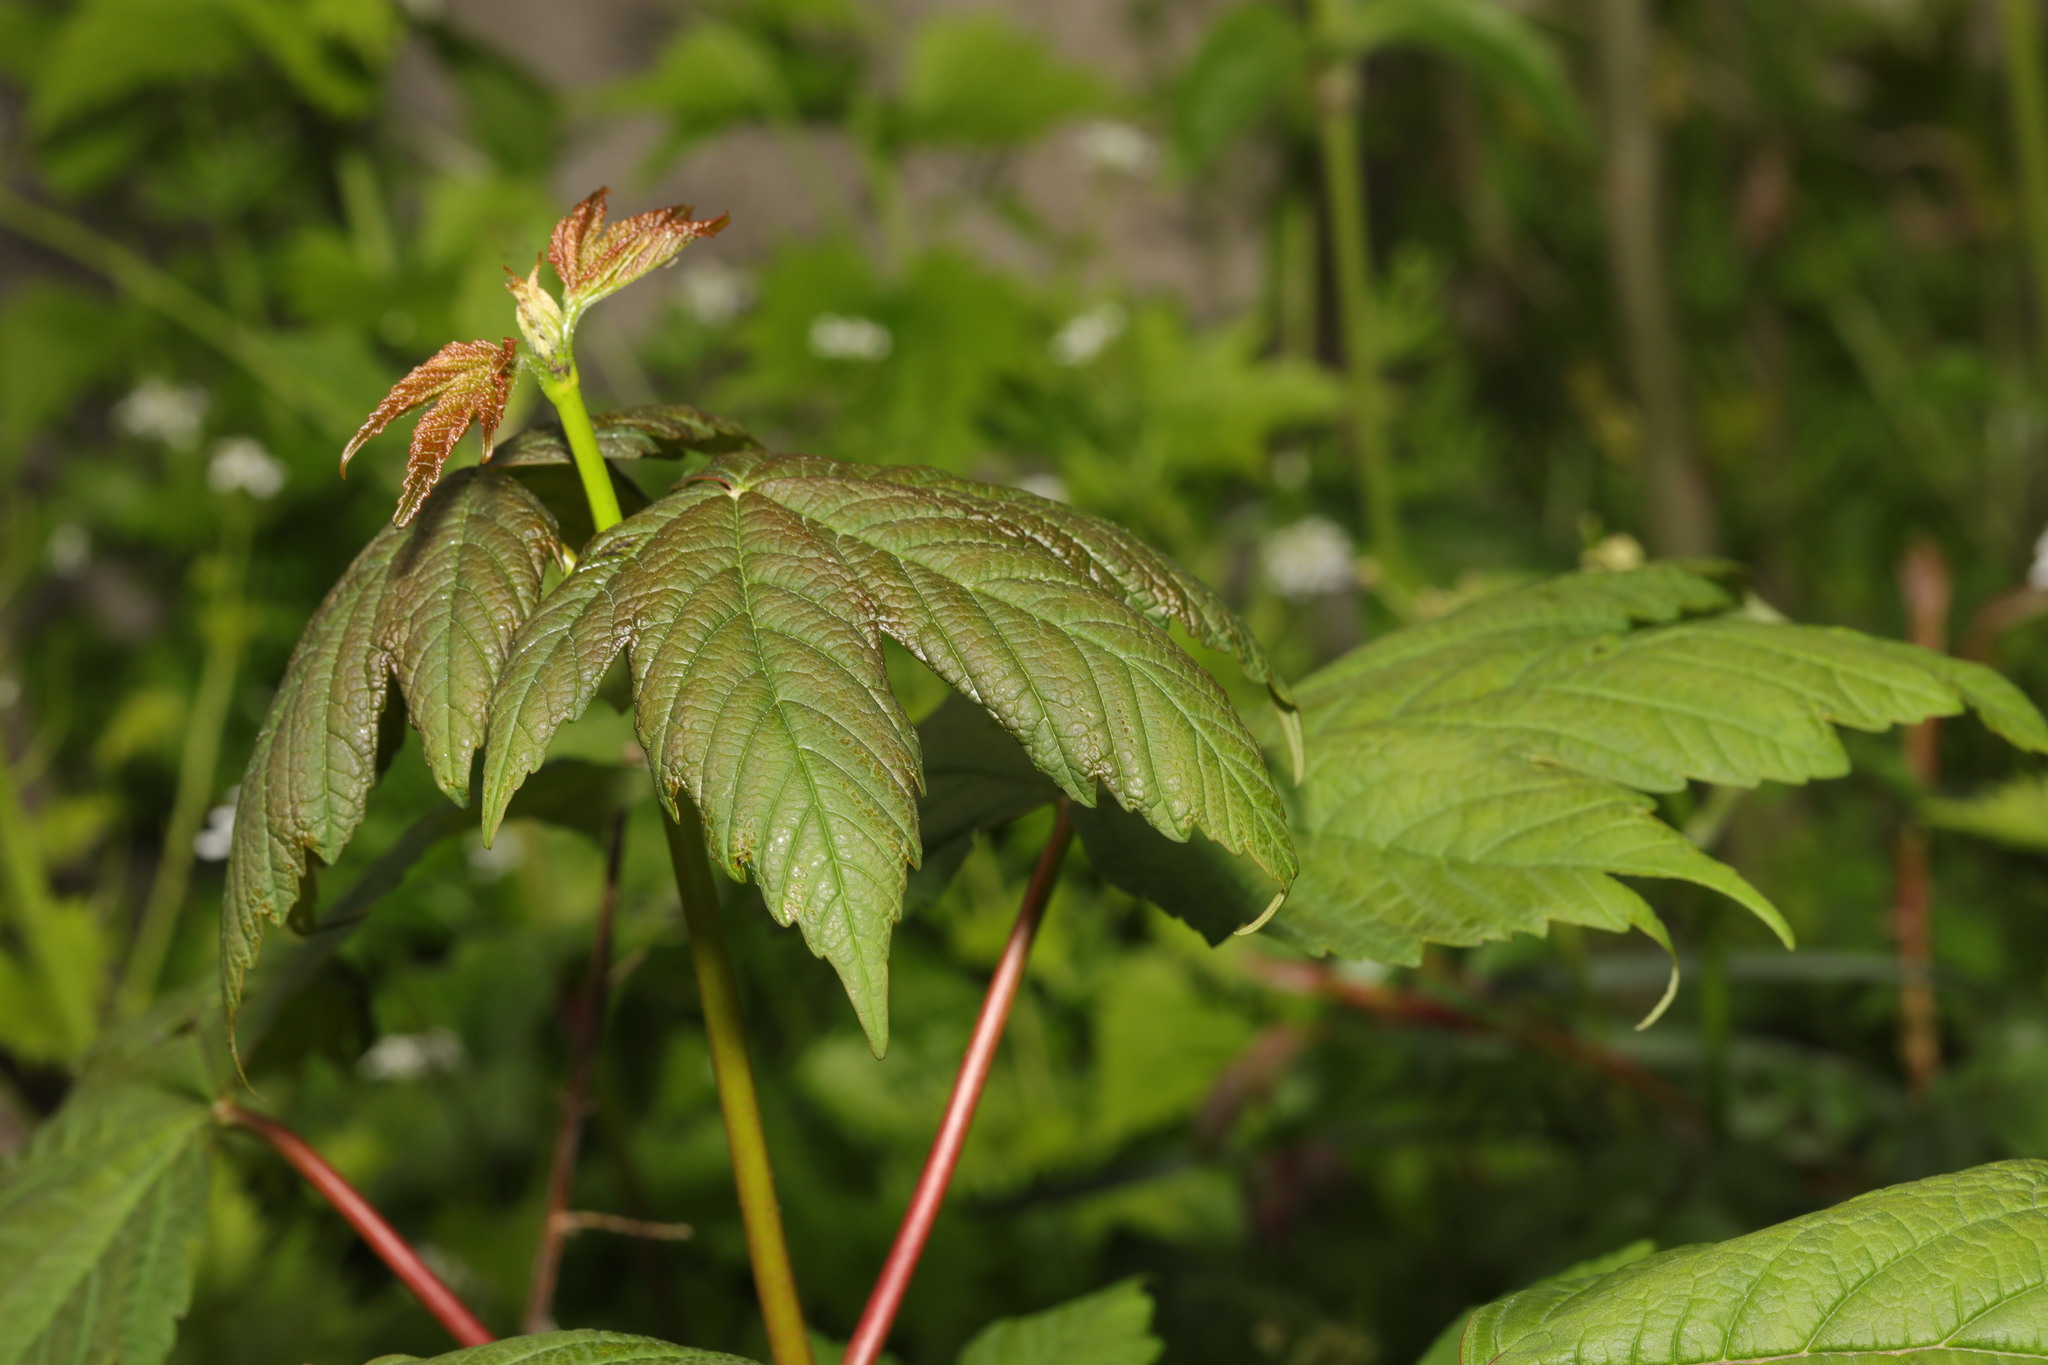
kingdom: Plantae
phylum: Tracheophyta
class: Magnoliopsida
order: Sapindales
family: Sapindaceae
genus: Acer
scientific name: Acer pseudoplatanus
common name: Sycamore
